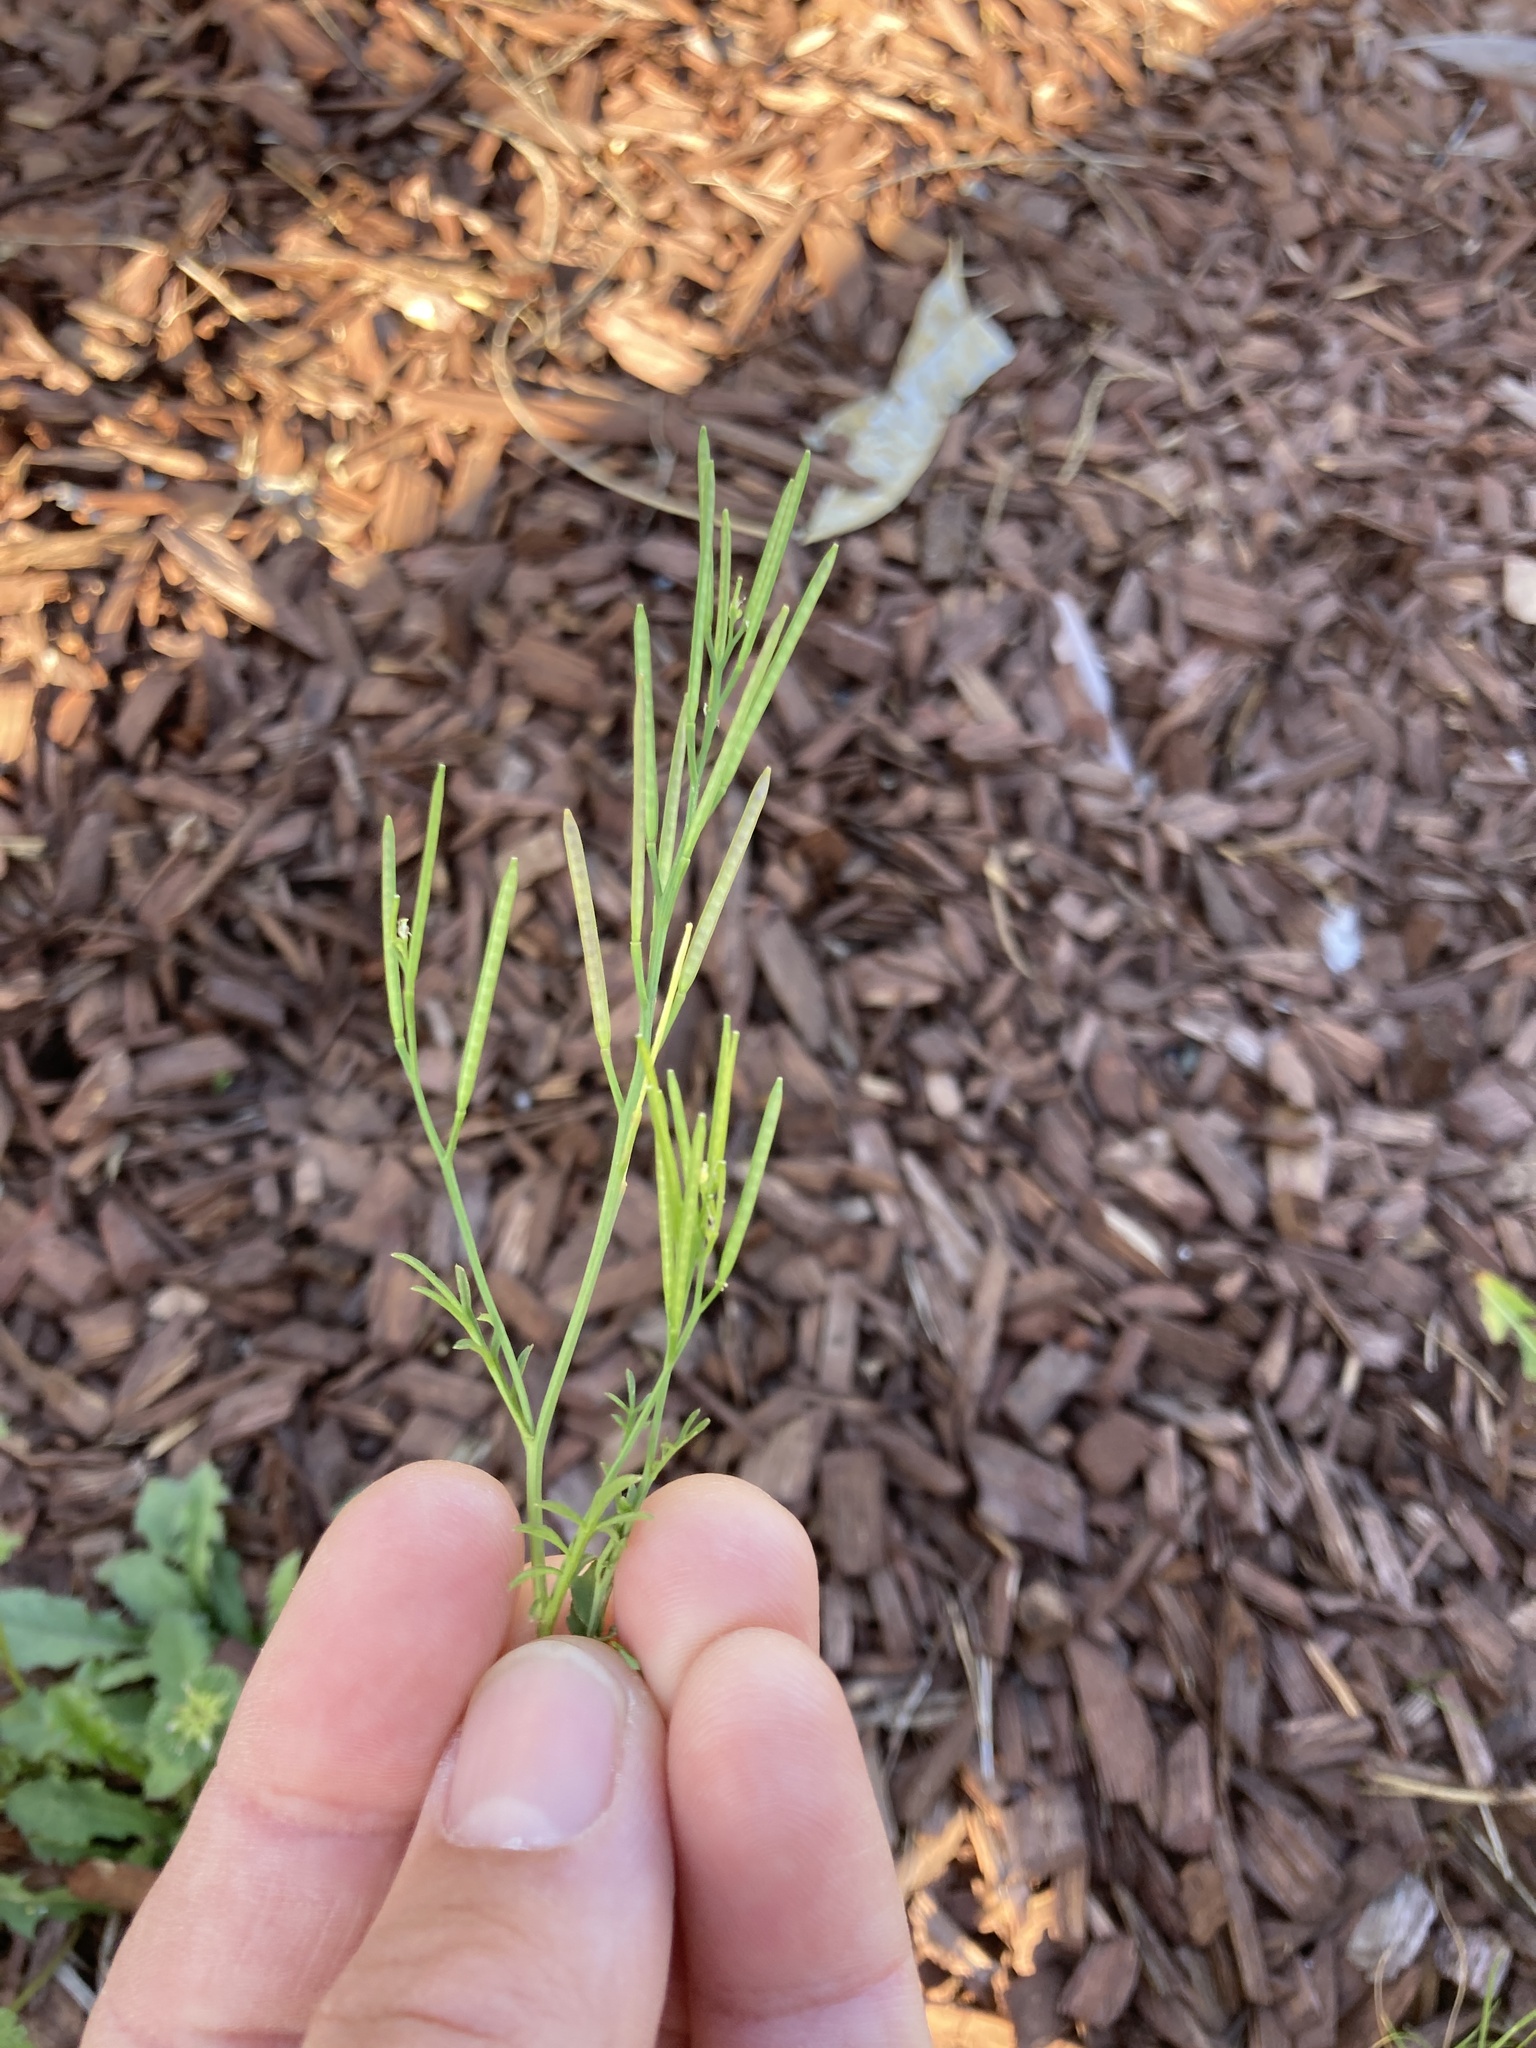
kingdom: Plantae
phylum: Tracheophyta
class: Magnoliopsida
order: Brassicales
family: Brassicaceae
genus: Cardamine
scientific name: Cardamine hirsuta
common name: Hairy bittercress
